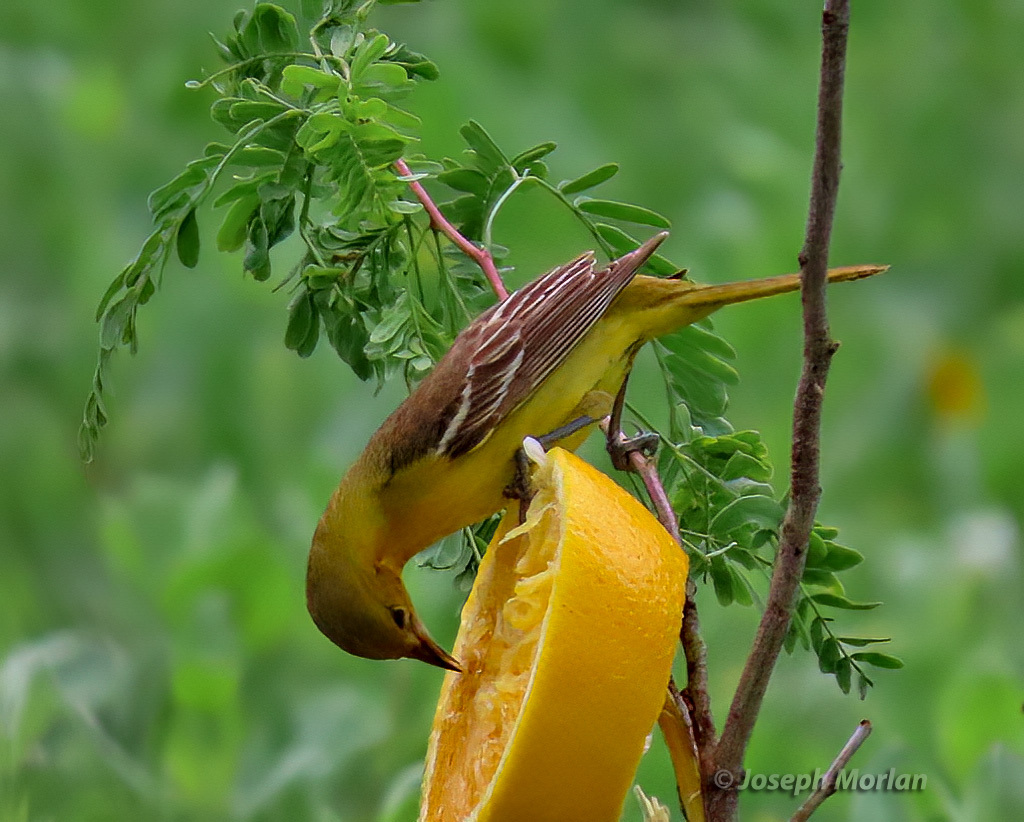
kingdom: Animalia
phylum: Chordata
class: Aves
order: Passeriformes
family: Icteridae
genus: Icterus
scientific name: Icterus spurius
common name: Orchard oriole
